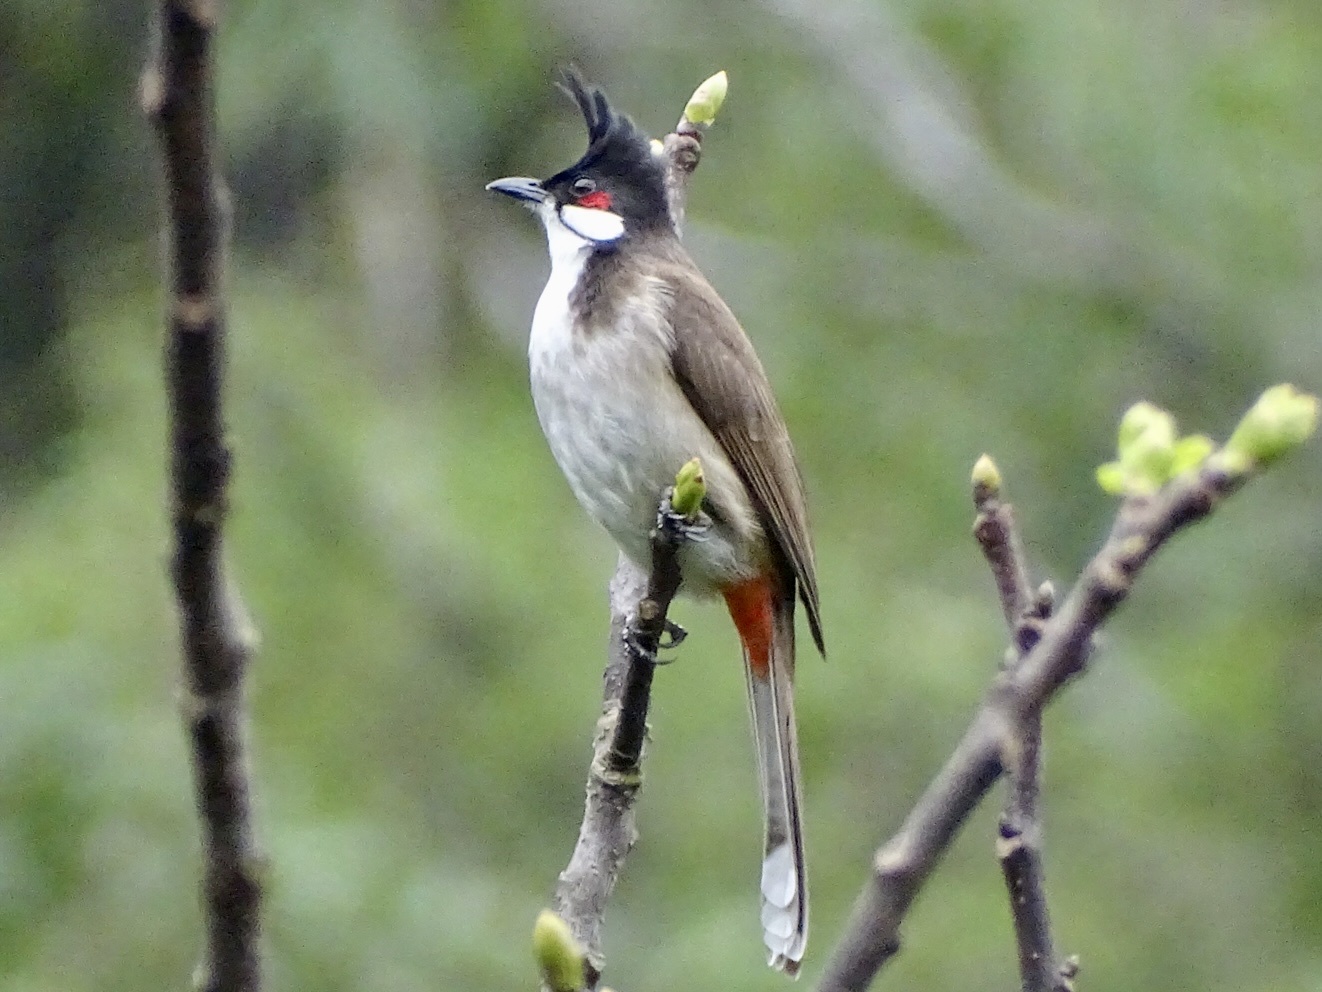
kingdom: Animalia
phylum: Chordata
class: Aves
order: Passeriformes
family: Pycnonotidae
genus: Pycnonotus
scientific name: Pycnonotus jocosus
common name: Red-whiskered bulbul
